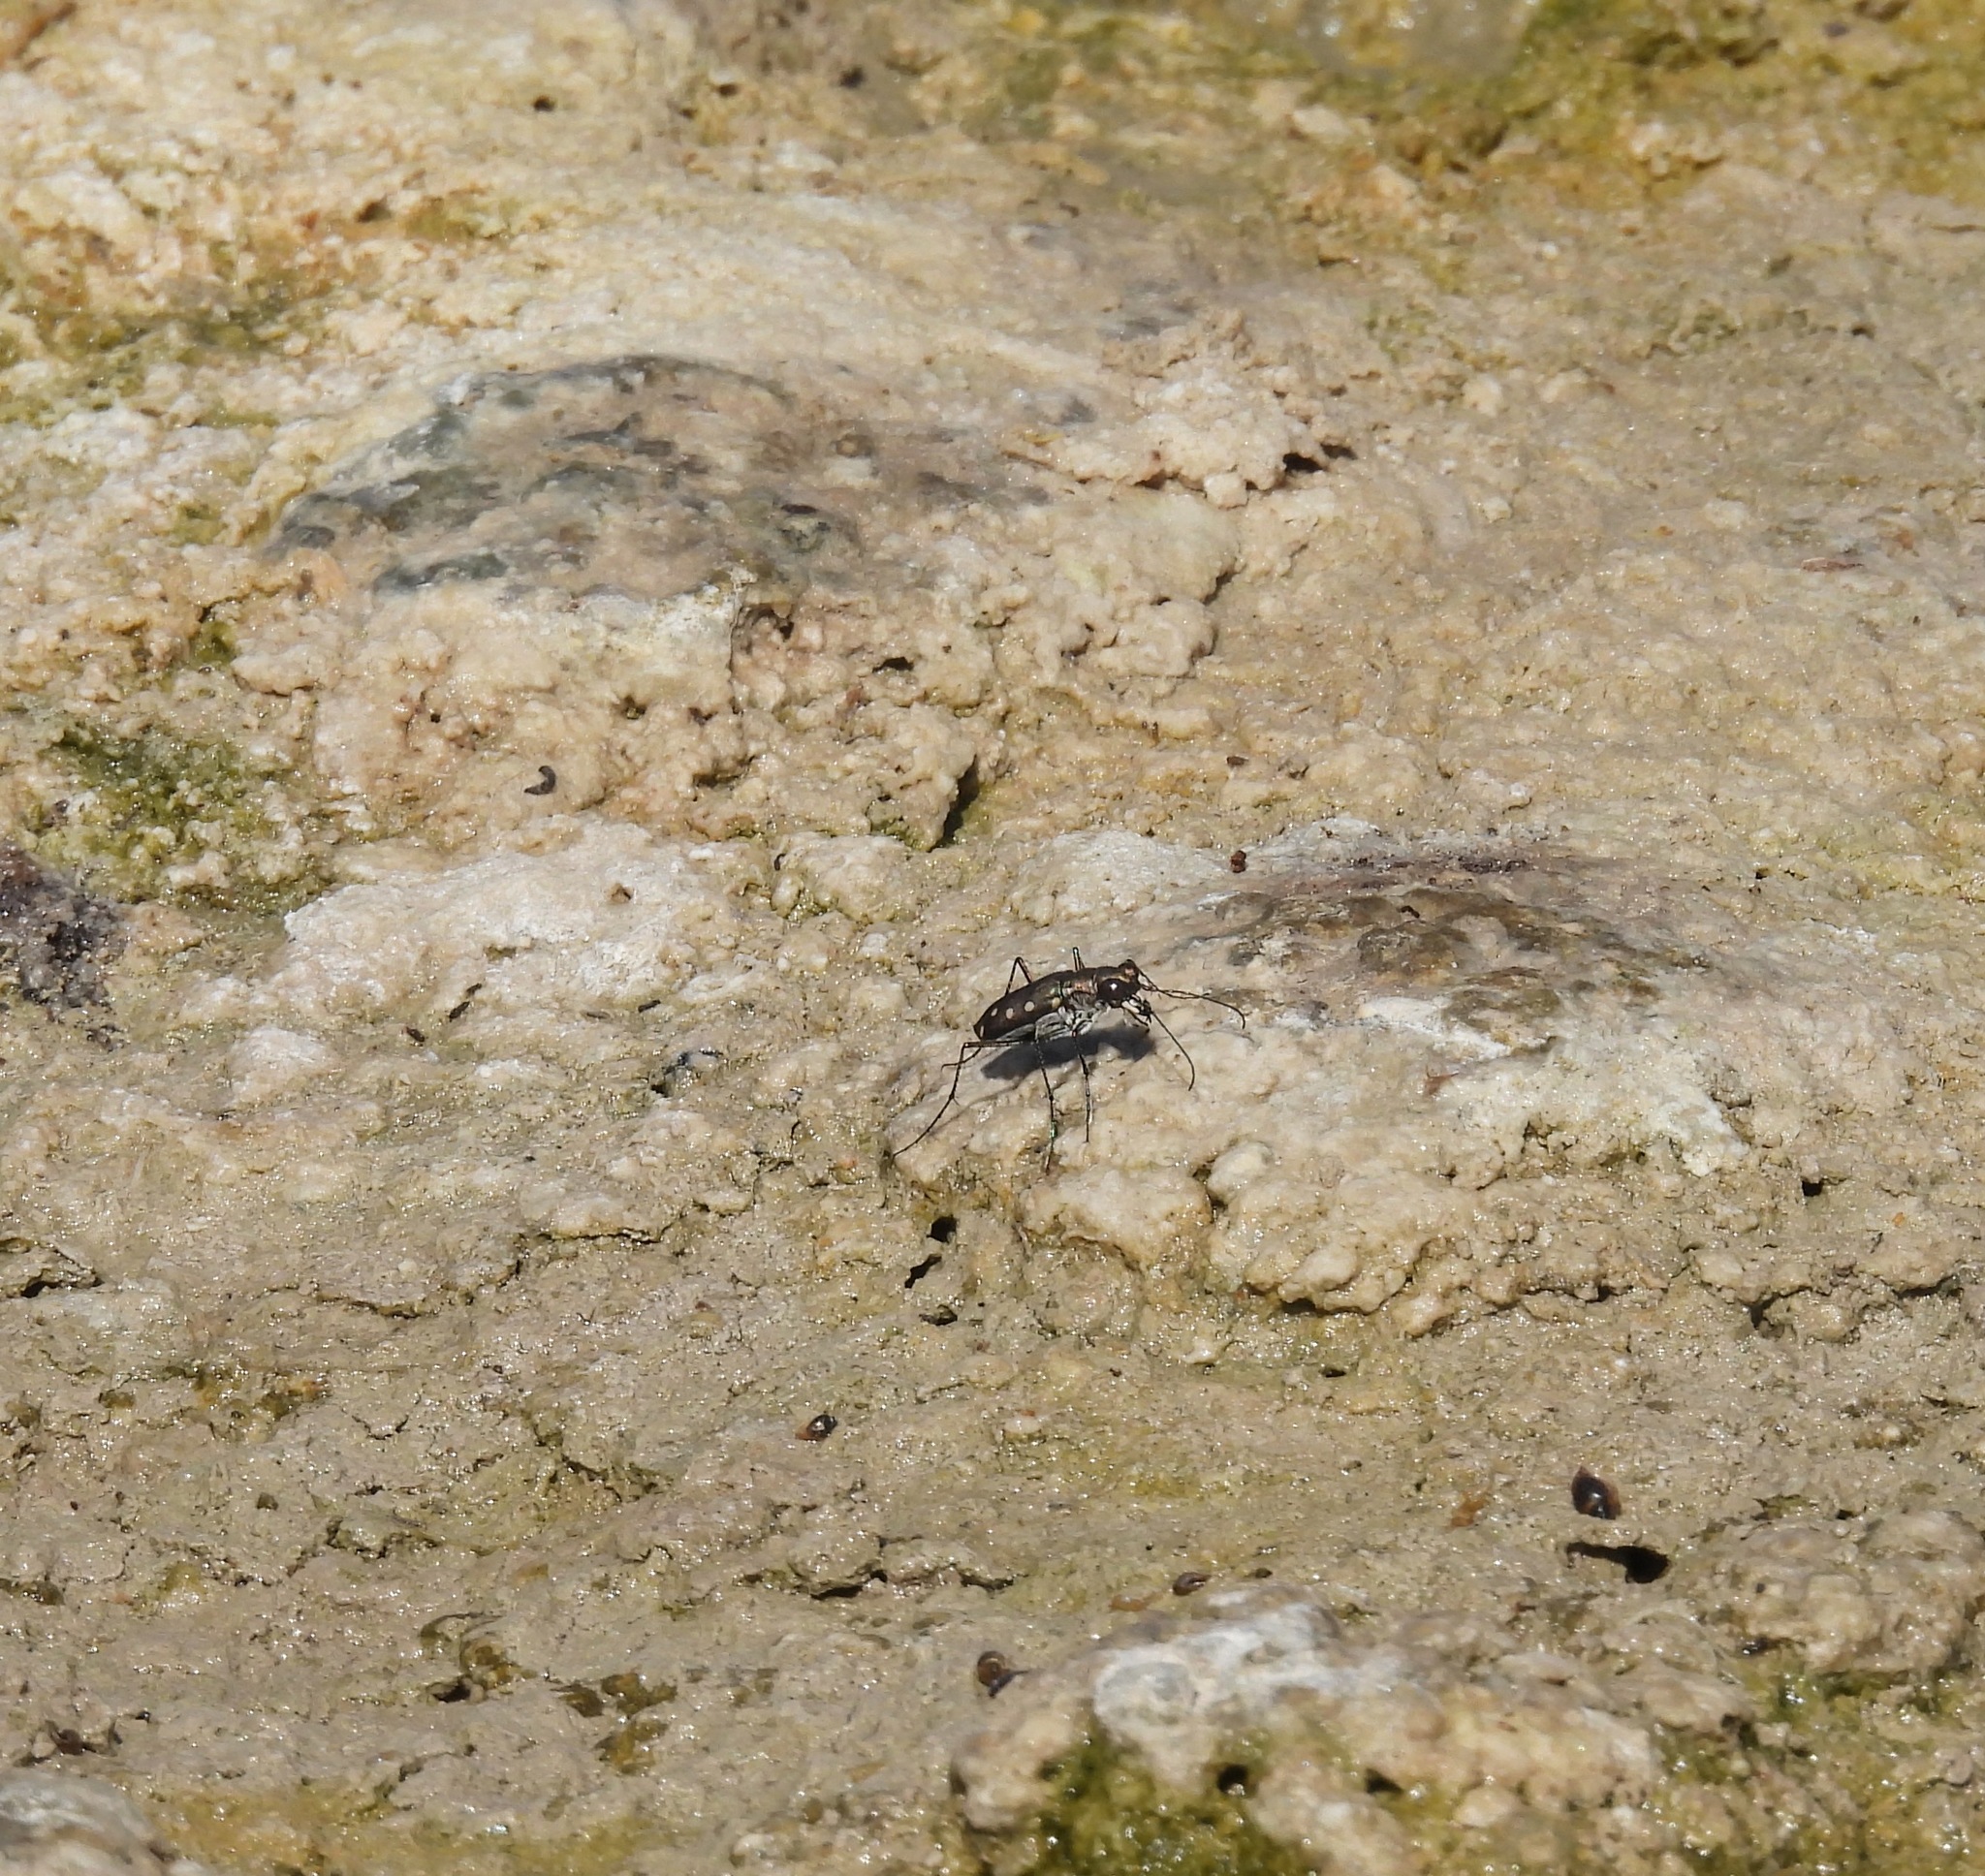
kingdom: Animalia
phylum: Arthropoda
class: Insecta
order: Coleoptera
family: Carabidae
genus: Cicindela
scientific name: Cicindela ocellata
